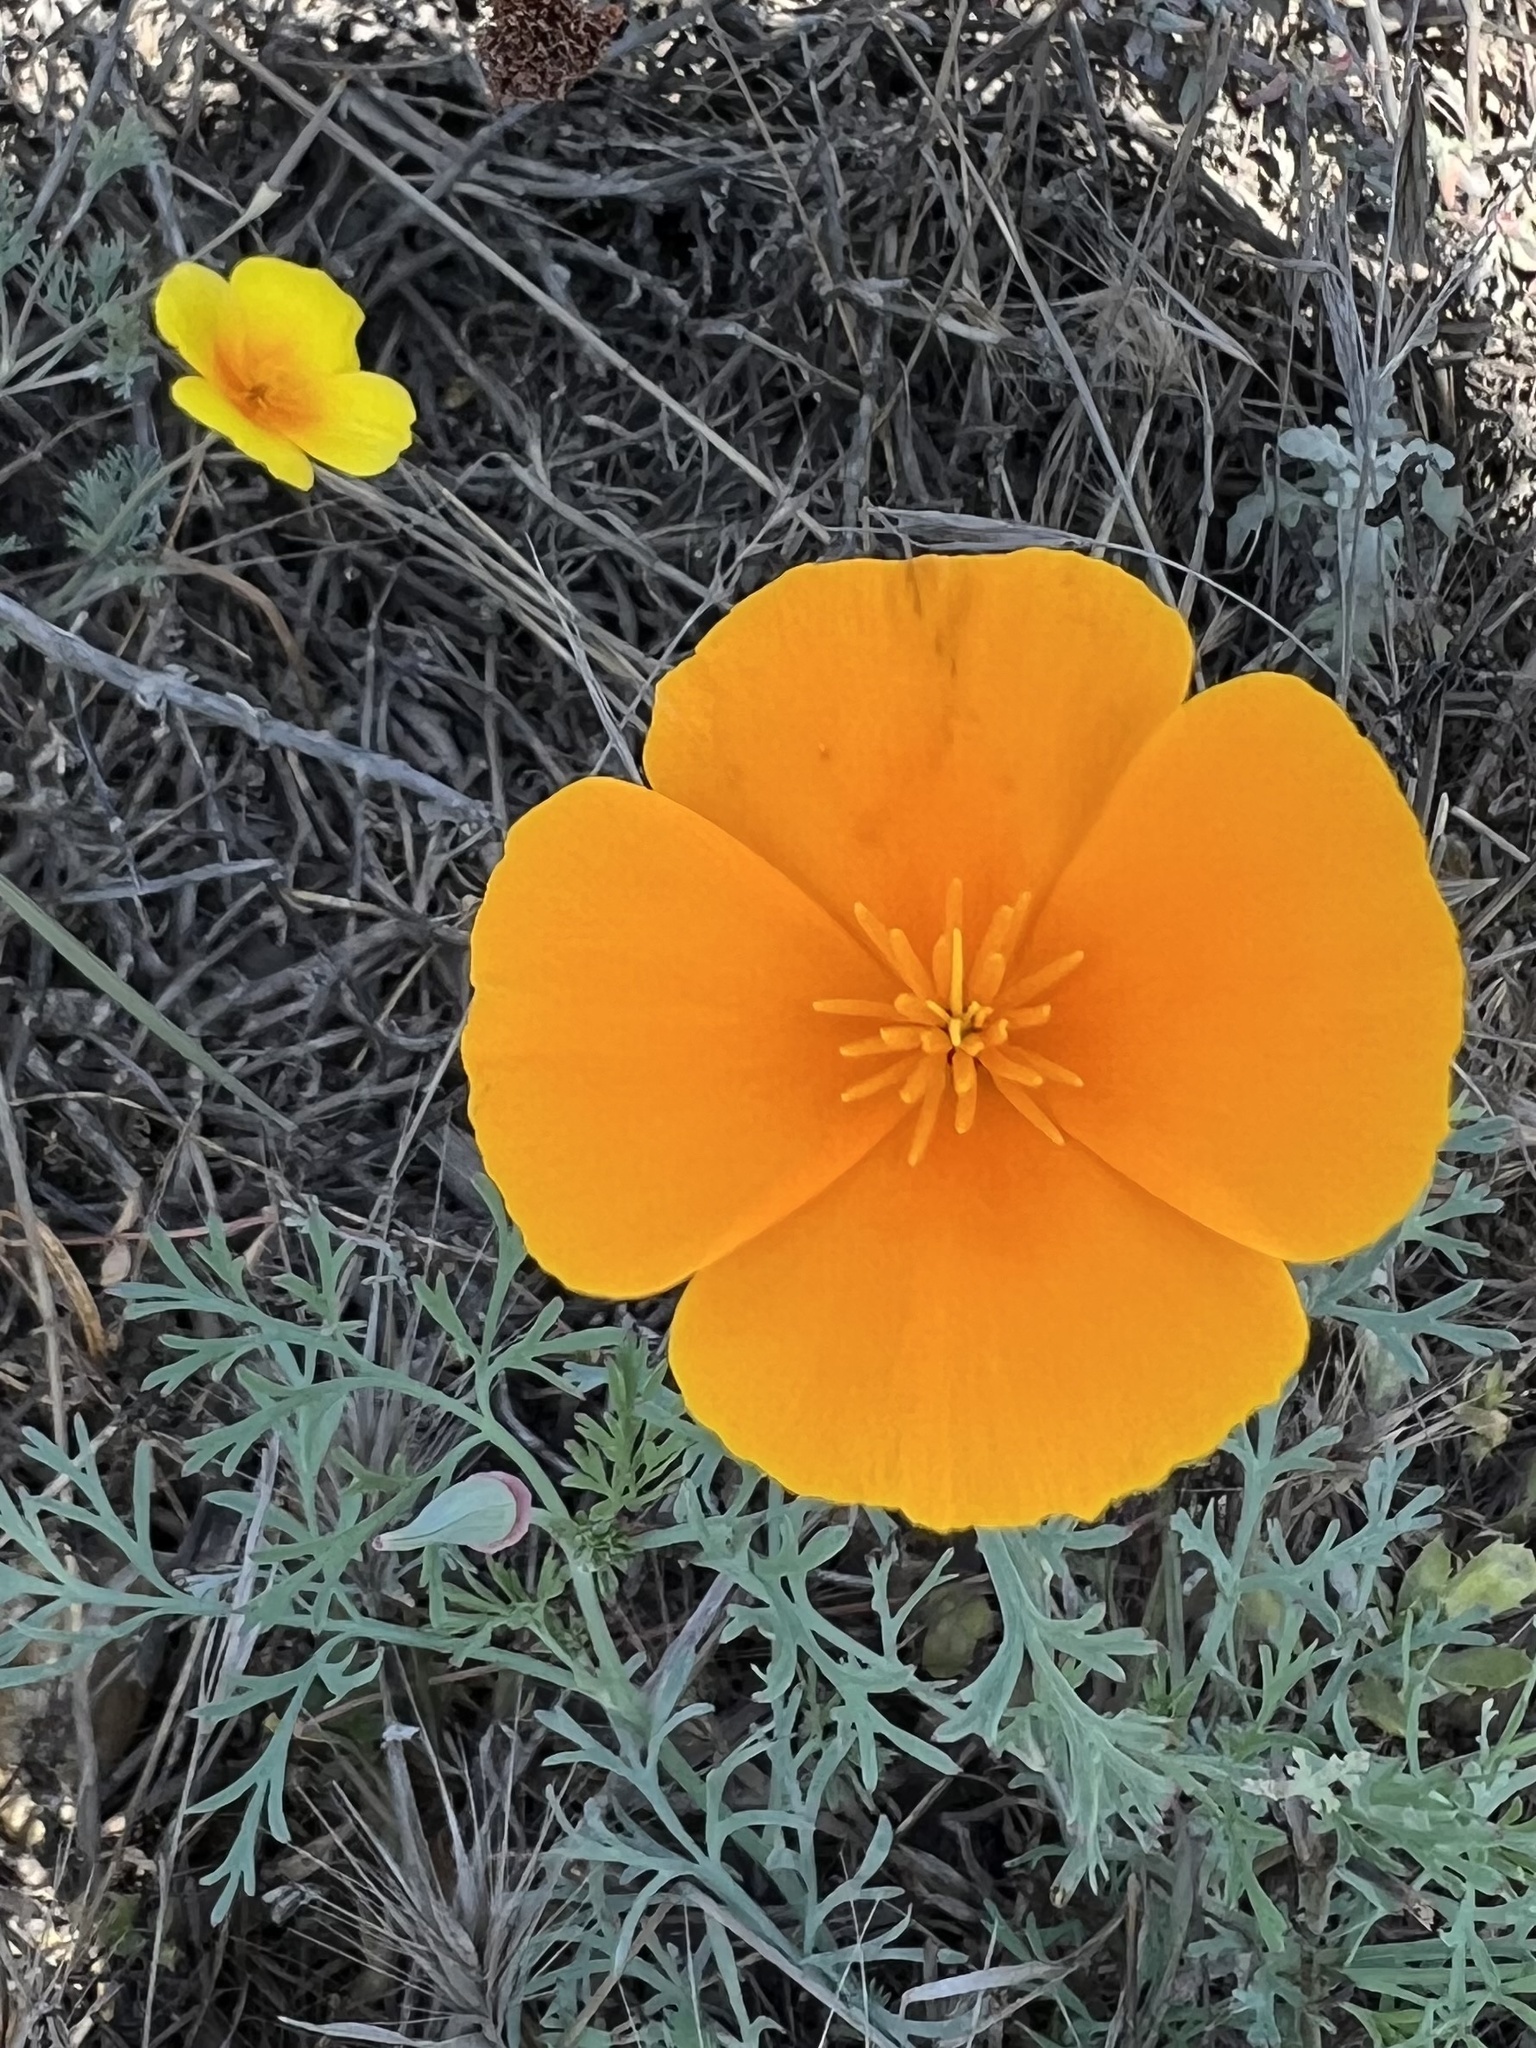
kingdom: Plantae
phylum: Tracheophyta
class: Magnoliopsida
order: Ranunculales
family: Papaveraceae
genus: Eschscholzia
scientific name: Eschscholzia caespitosa
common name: Tufted california-poppy
